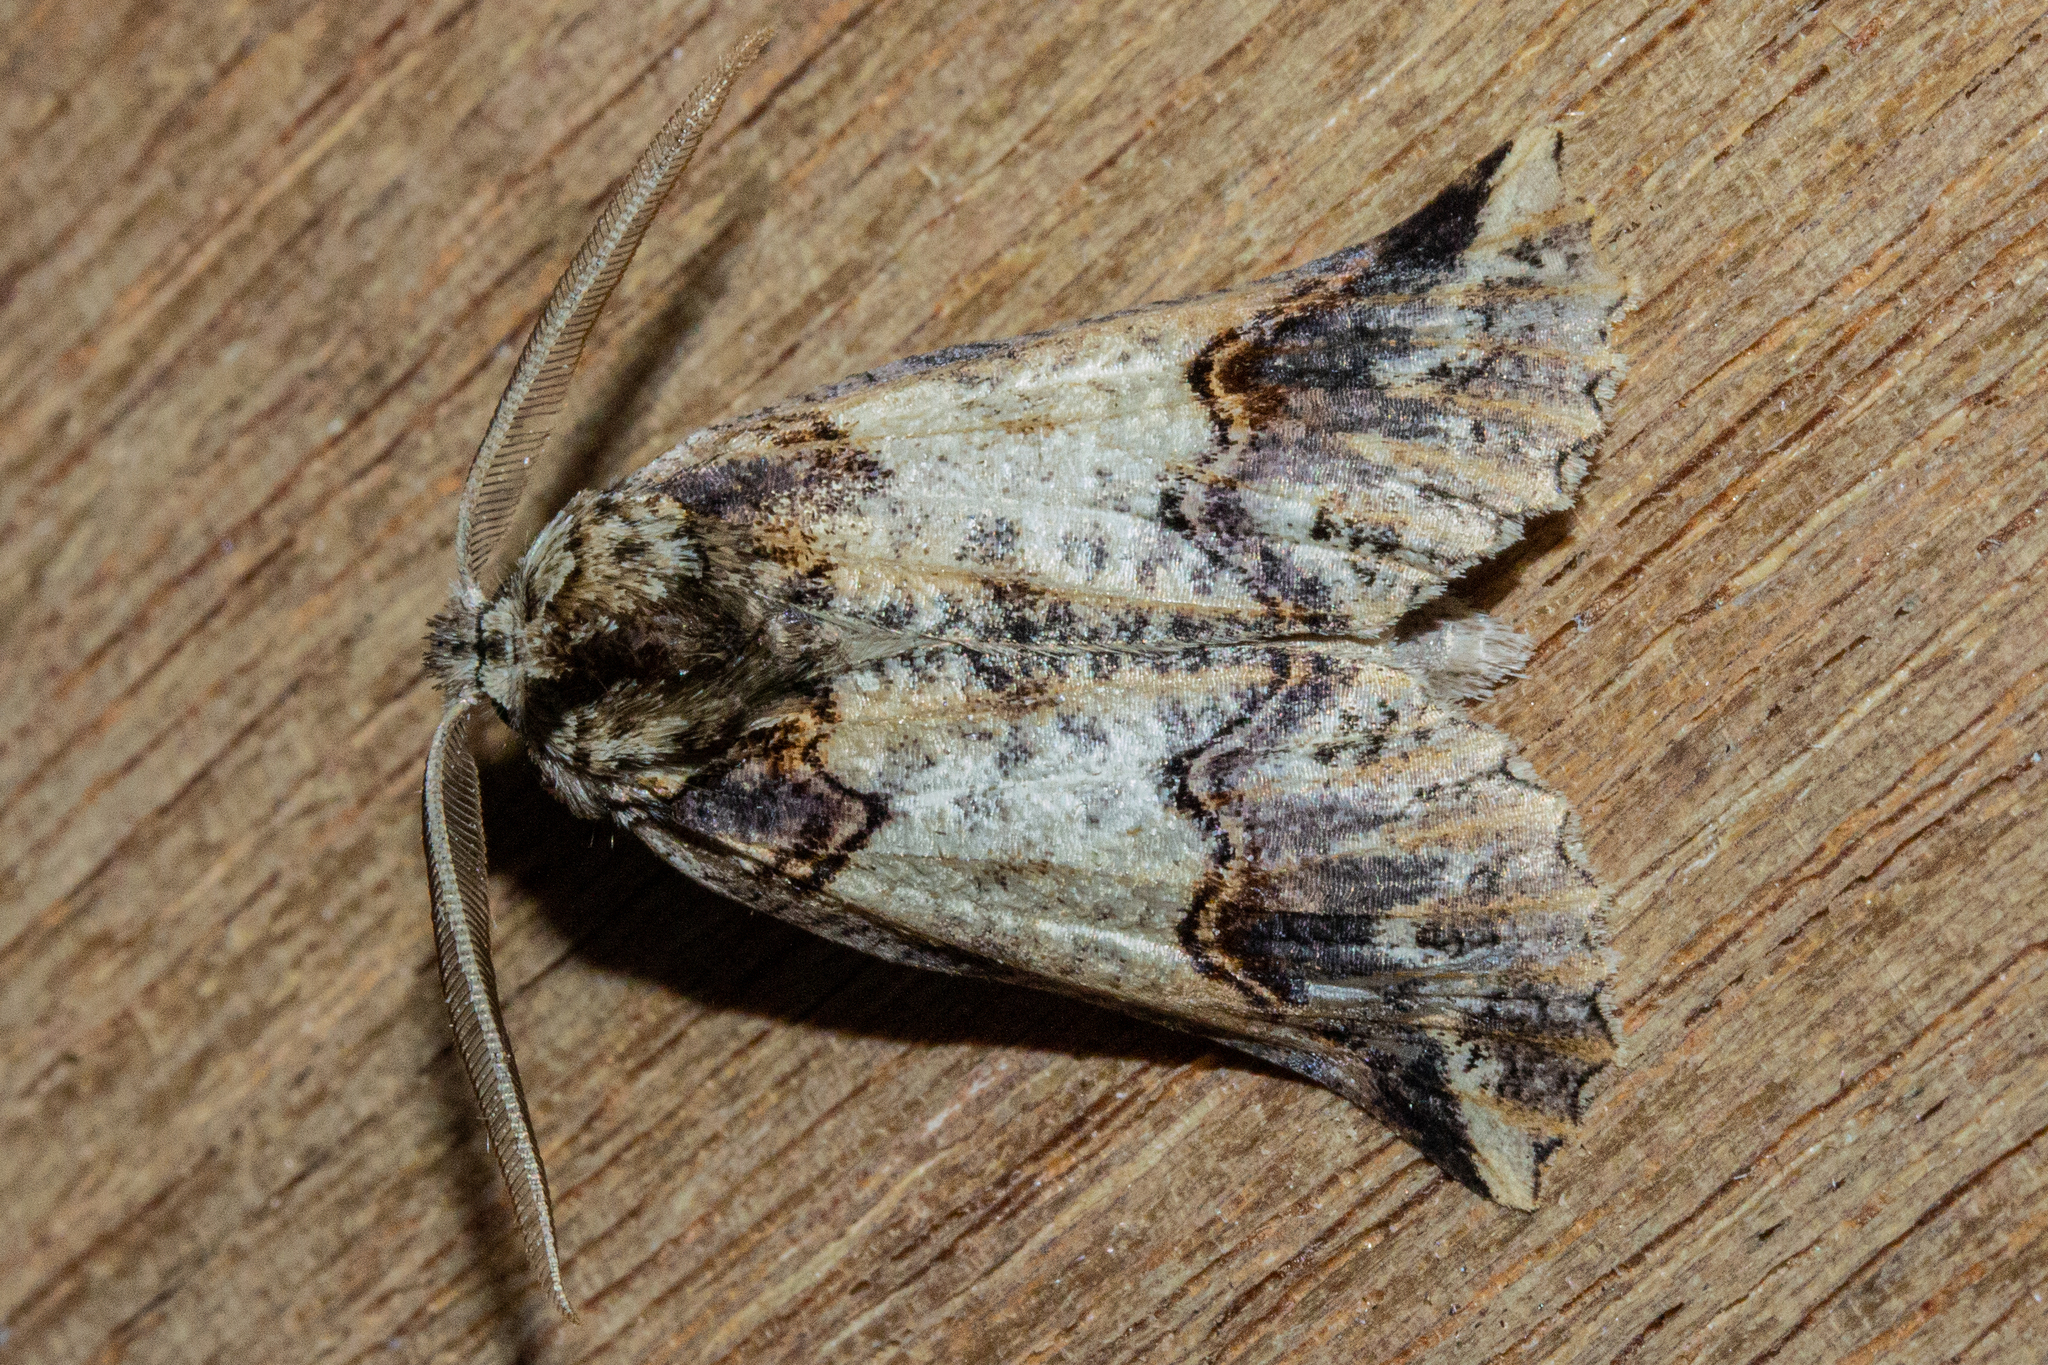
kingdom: Animalia
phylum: Arthropoda
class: Insecta
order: Lepidoptera
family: Geometridae
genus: Declana
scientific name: Declana
